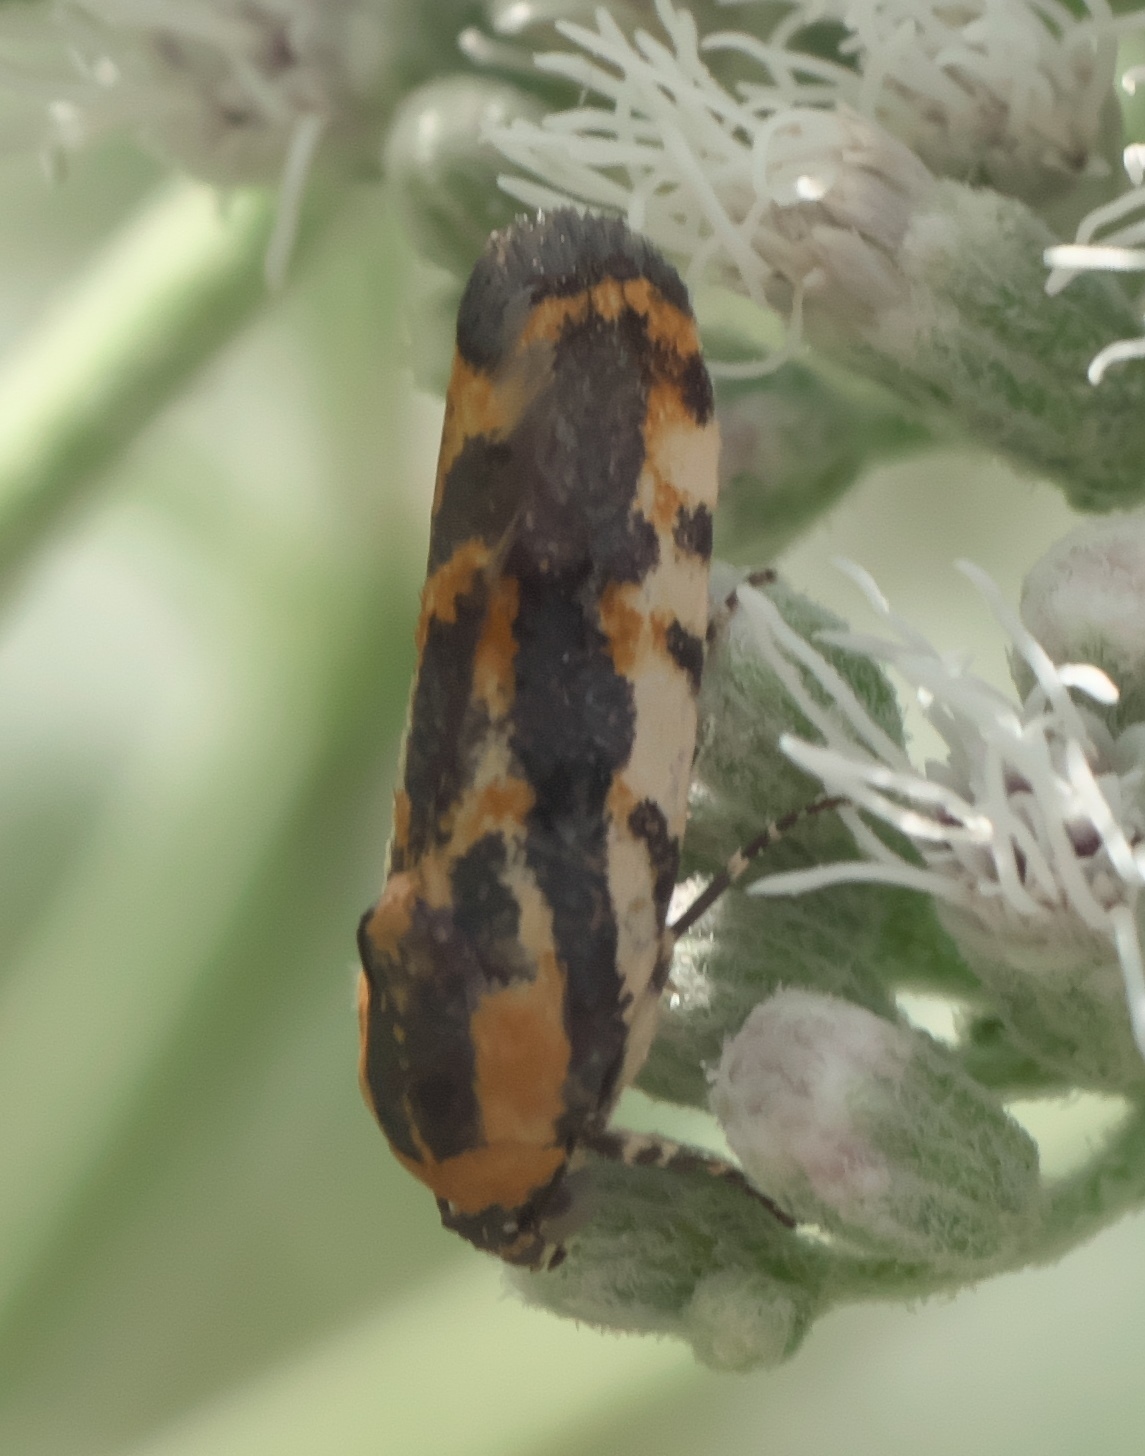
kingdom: Animalia
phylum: Arthropoda
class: Insecta
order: Lepidoptera
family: Noctuidae
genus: Acontia
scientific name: Acontia leo
